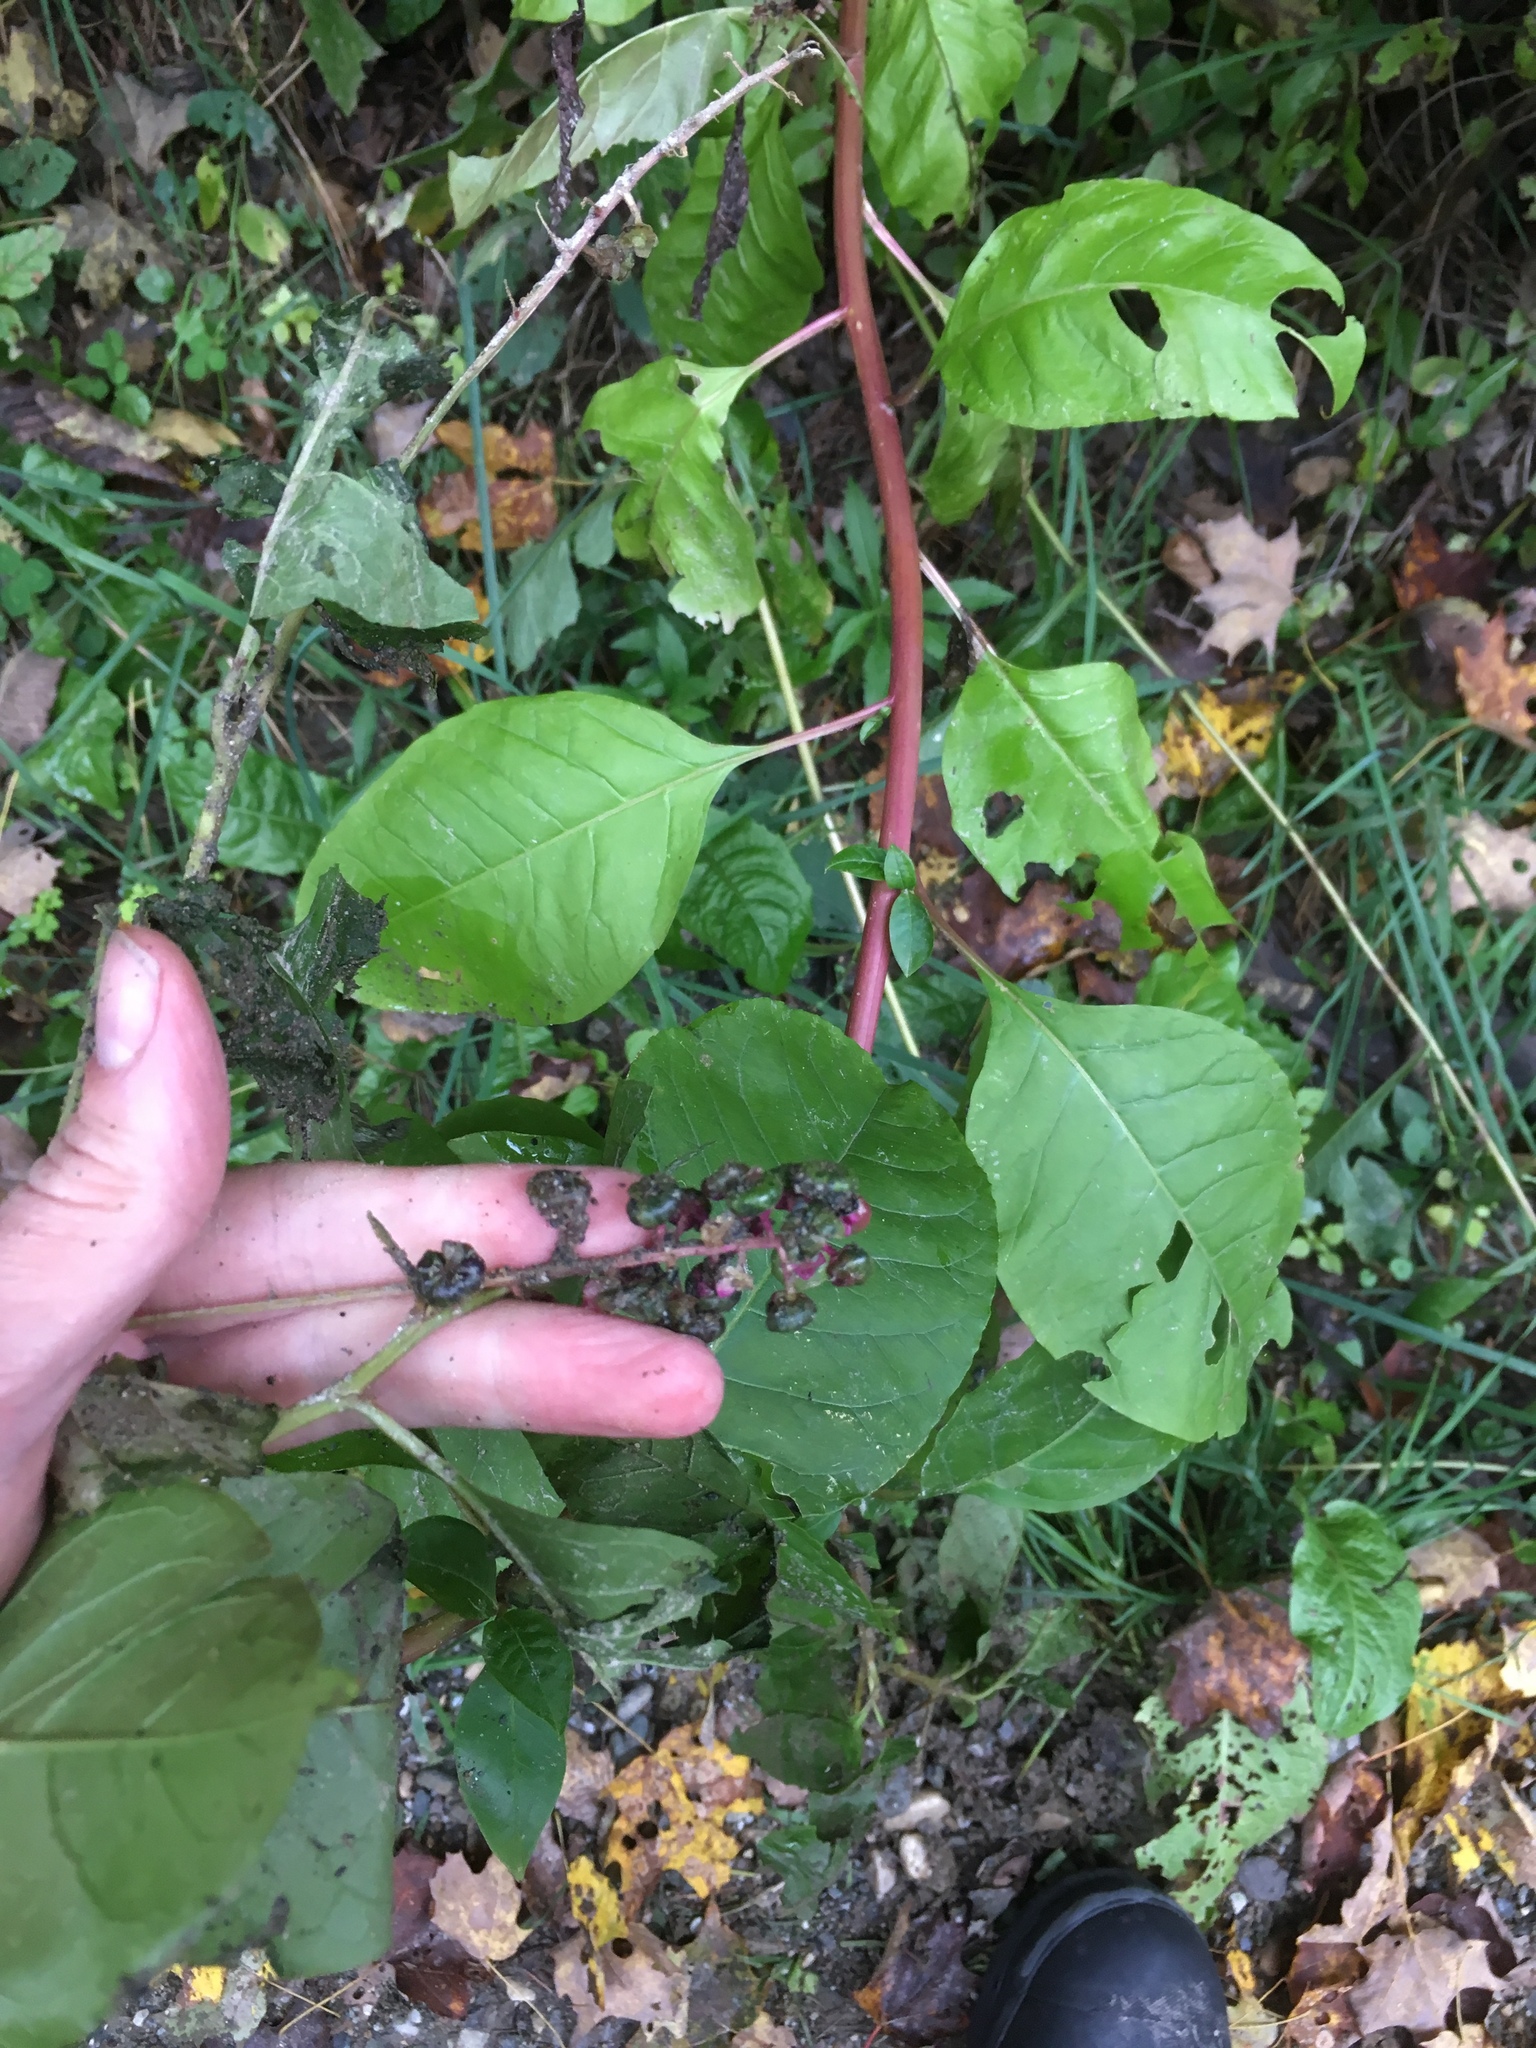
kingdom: Plantae
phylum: Tracheophyta
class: Magnoliopsida
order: Caryophyllales
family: Phytolaccaceae
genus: Phytolacca
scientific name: Phytolacca americana
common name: American pokeweed
